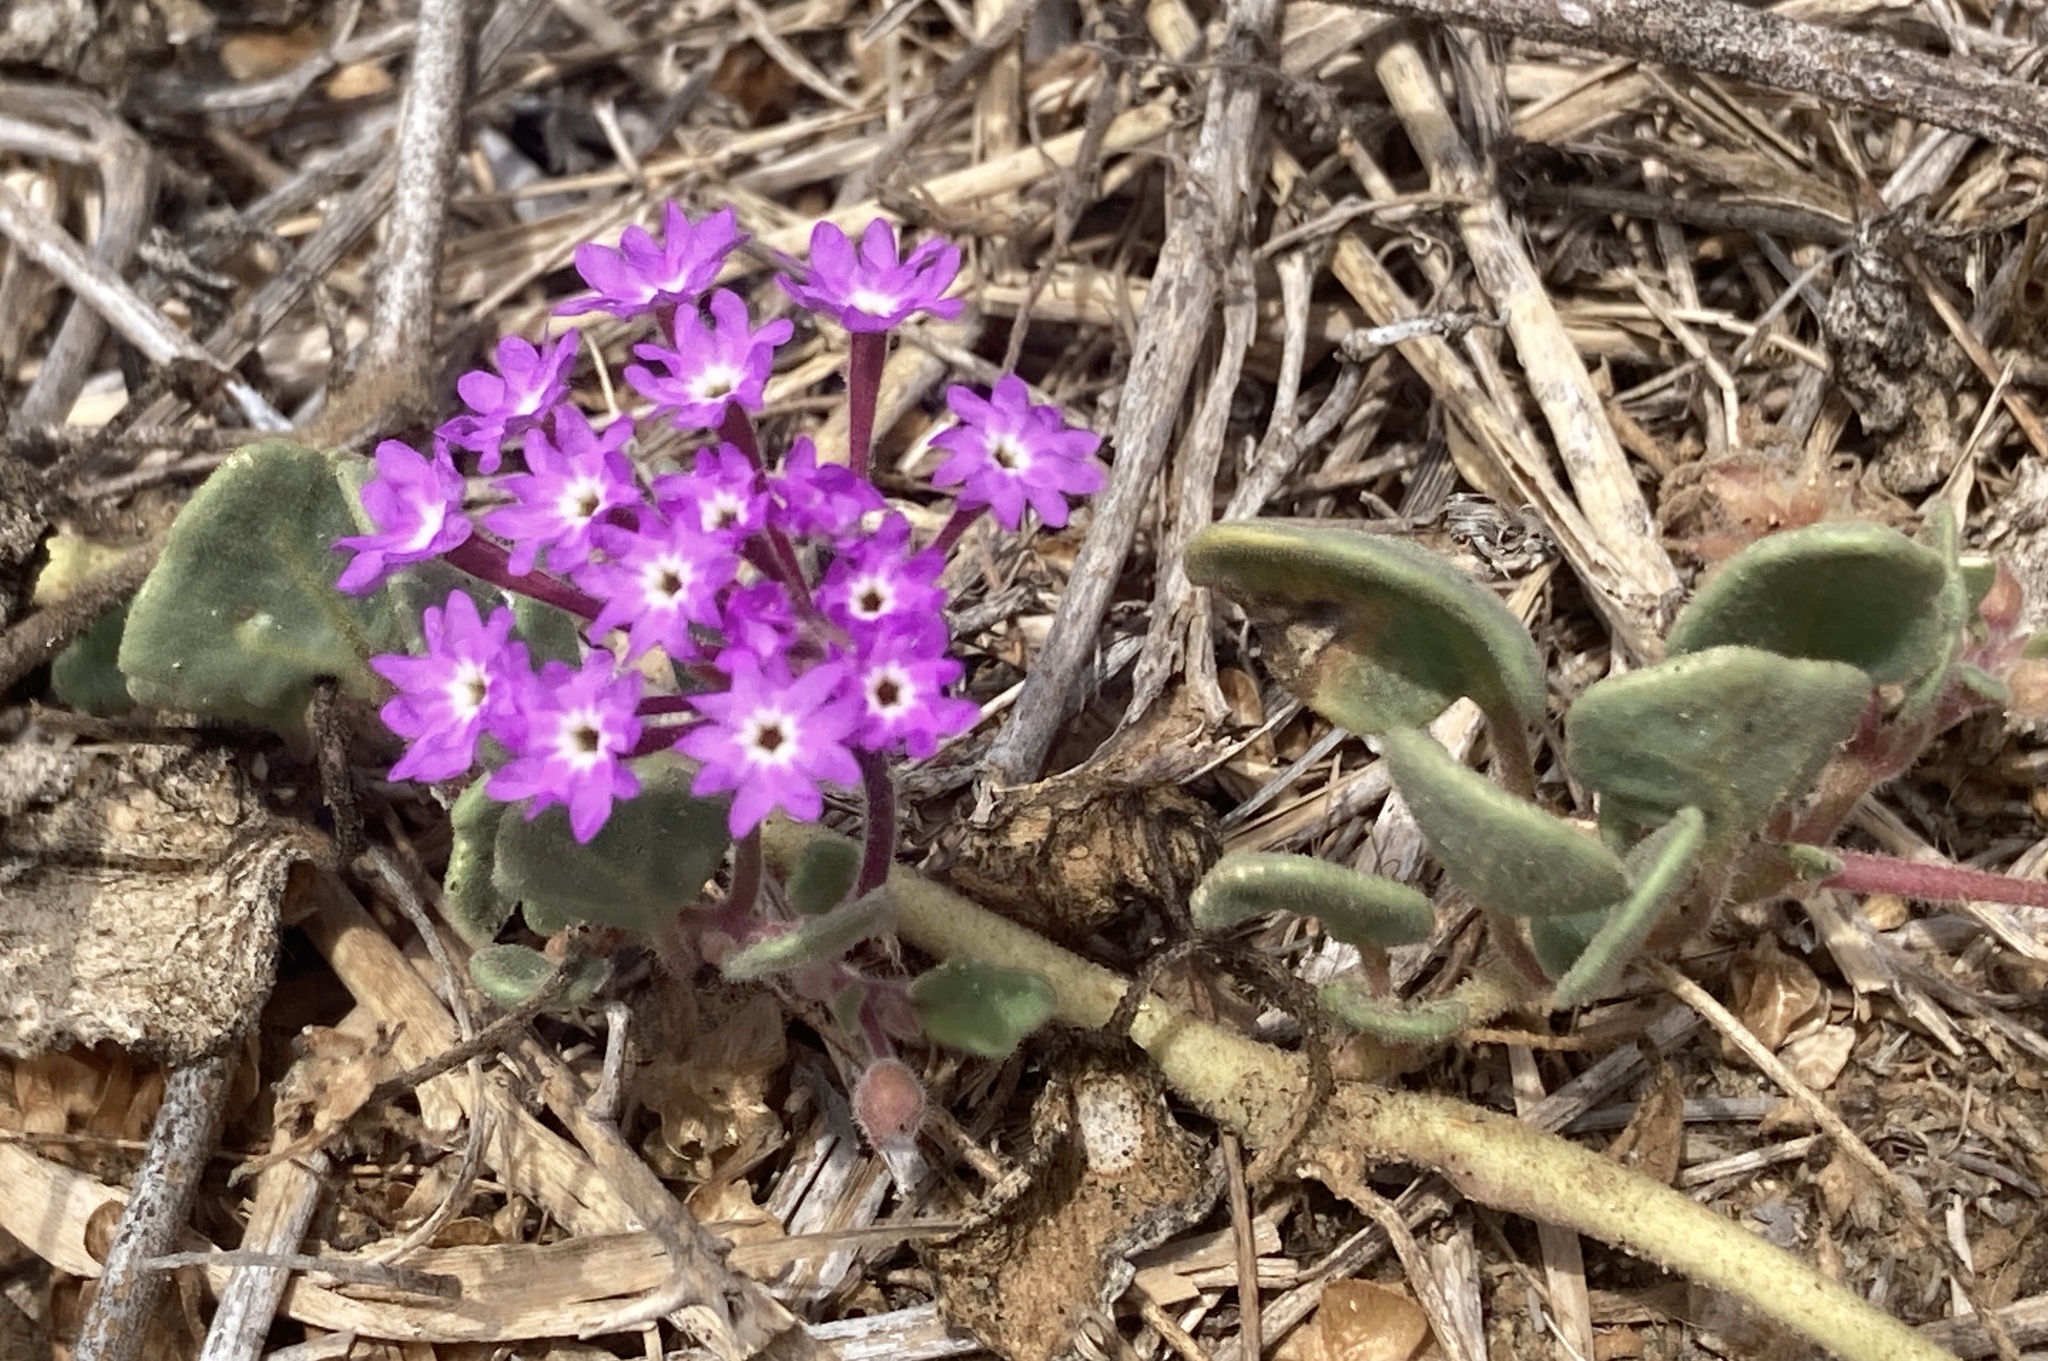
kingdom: Plantae
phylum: Tracheophyta
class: Magnoliopsida
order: Caryophyllales
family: Nyctaginaceae
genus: Abronia
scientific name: Abronia umbellata
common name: Sand-verbena
